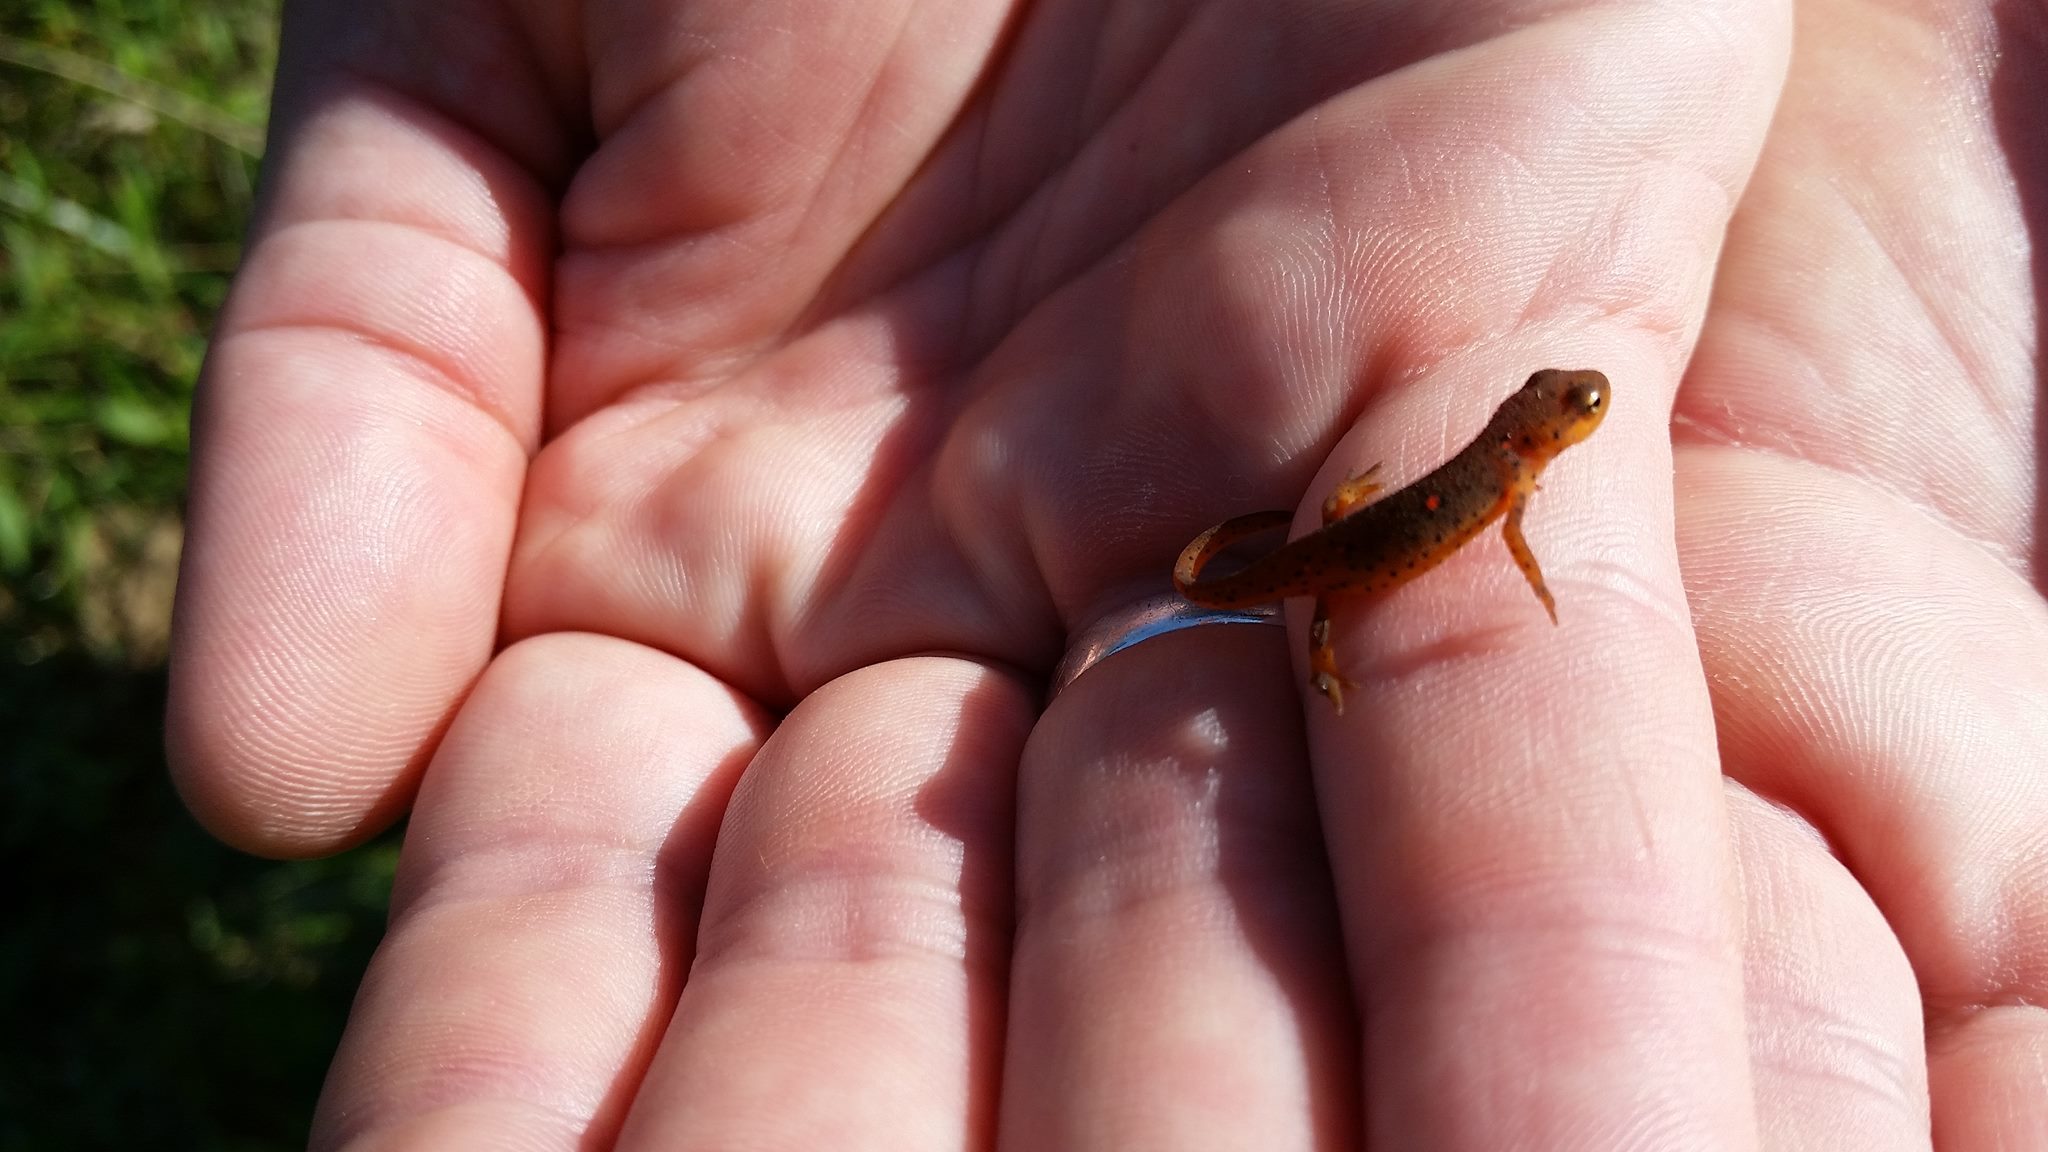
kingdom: Animalia
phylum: Chordata
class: Amphibia
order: Caudata
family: Salamandridae
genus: Notophthalmus
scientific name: Notophthalmus viridescens
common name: Eastern newt
